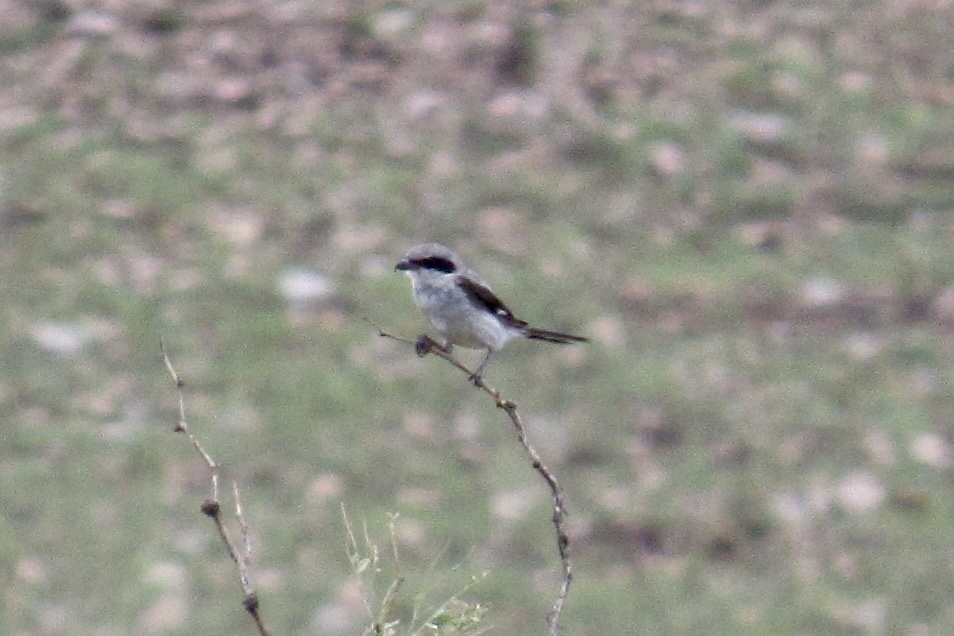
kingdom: Animalia
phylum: Chordata
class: Aves
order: Passeriformes
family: Laniidae
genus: Lanius
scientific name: Lanius ludovicianus
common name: Loggerhead shrike
